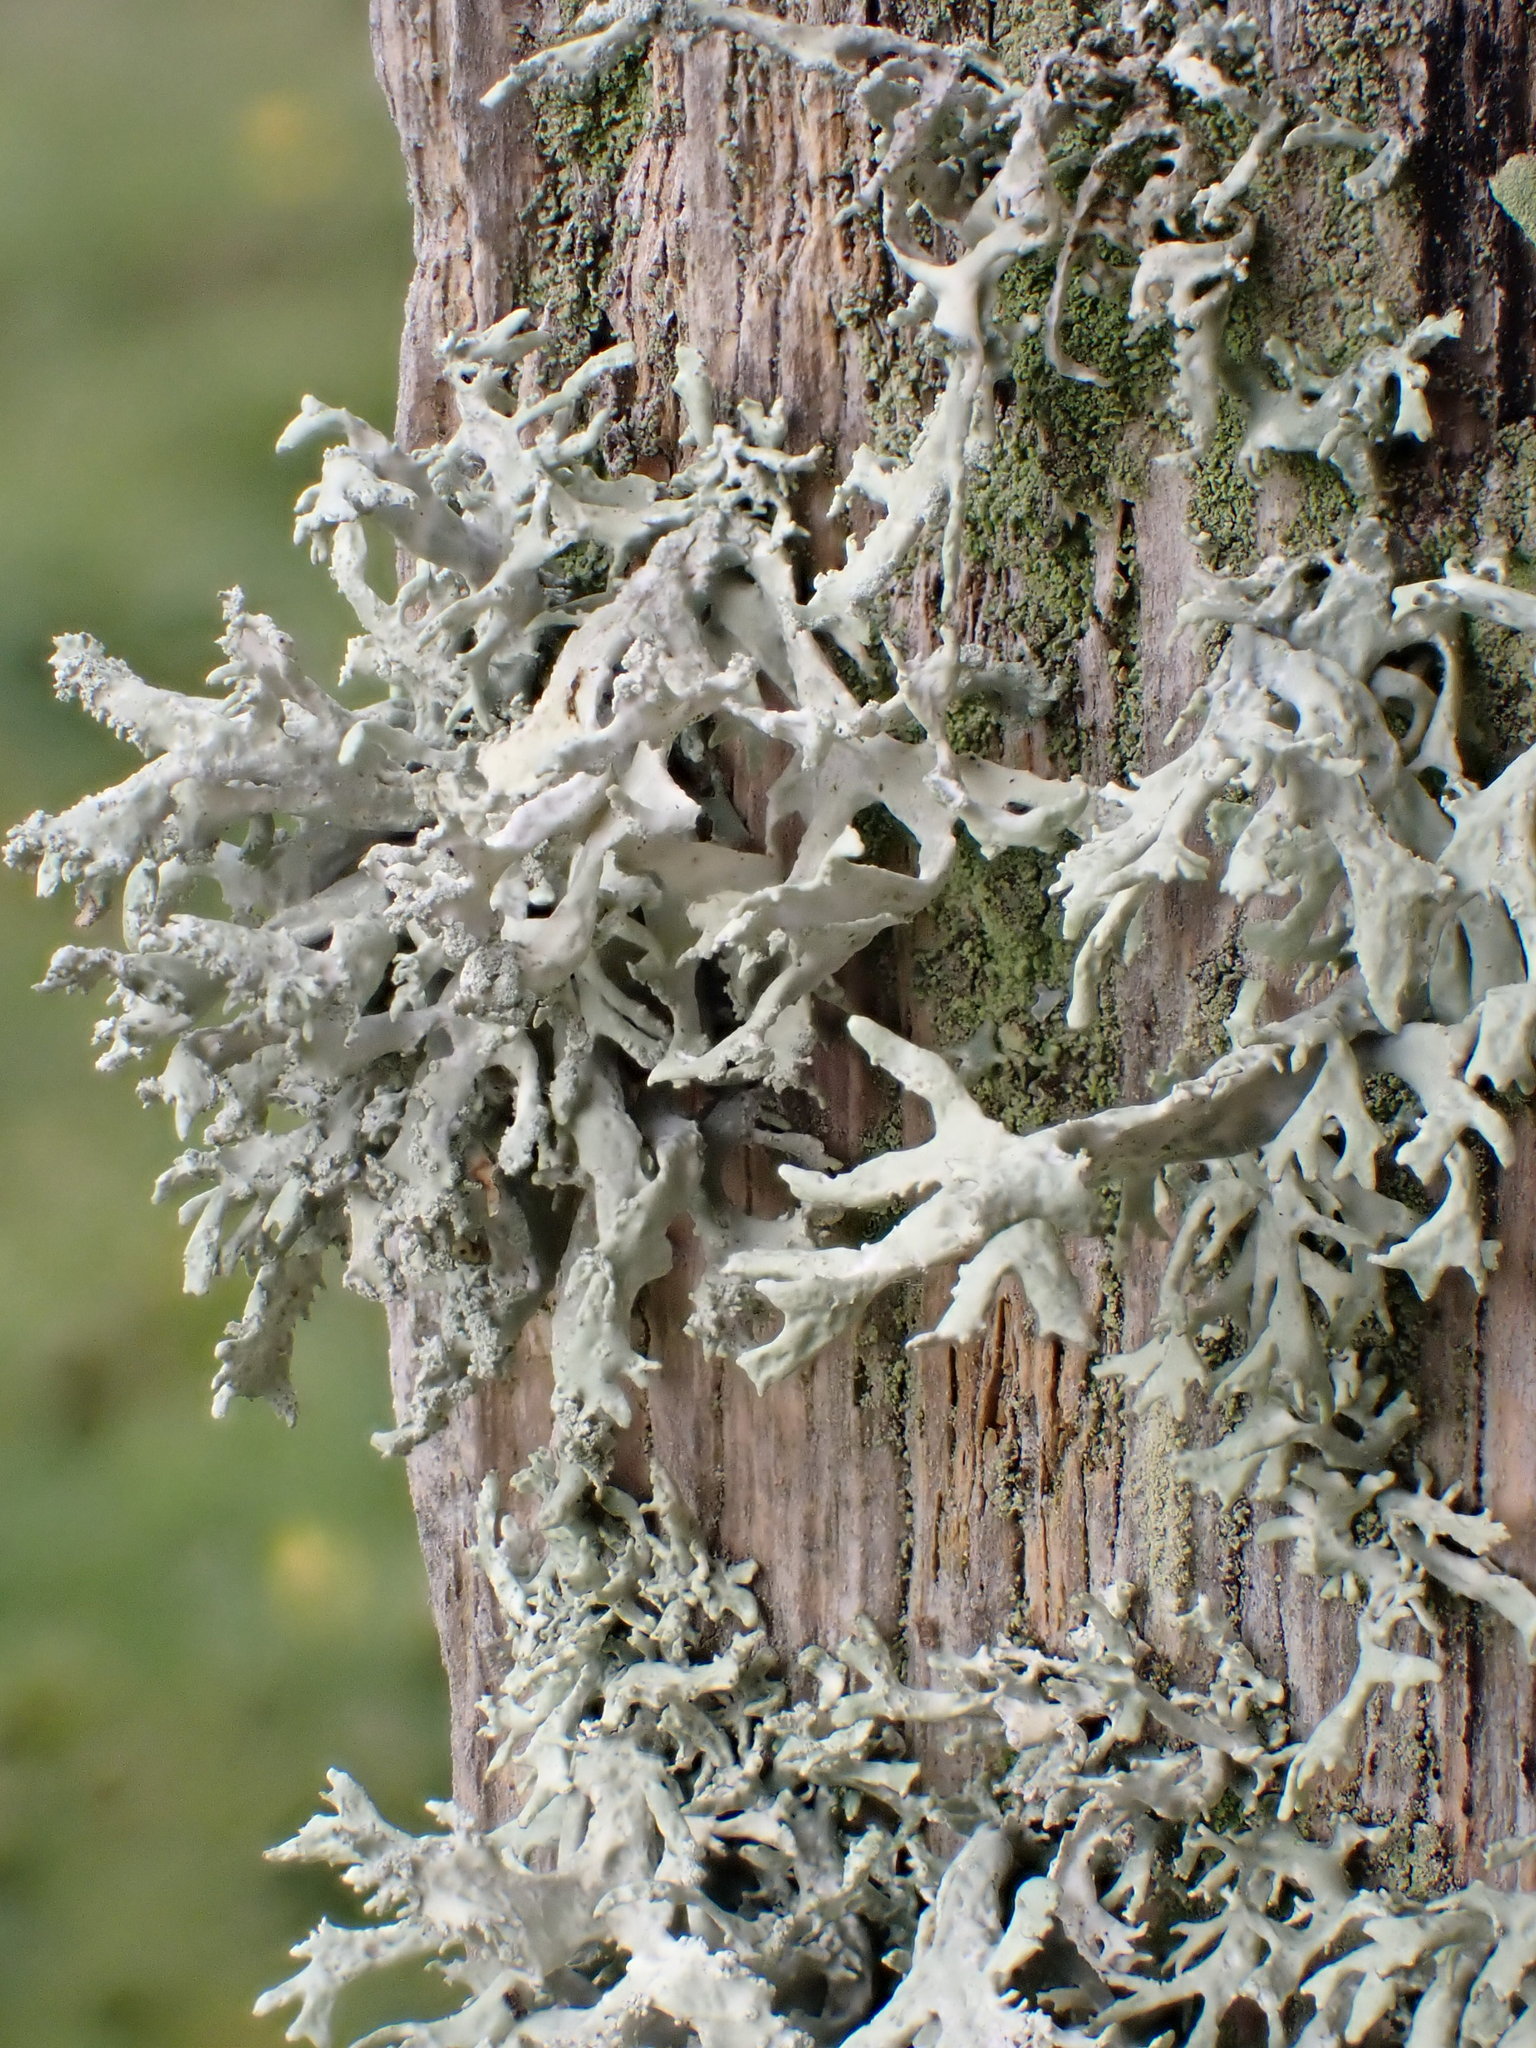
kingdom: Fungi
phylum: Ascomycota
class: Lecanoromycetes
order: Lecanorales
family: Parmeliaceae
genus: Evernia
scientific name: Evernia prunastri
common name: Oak moss
